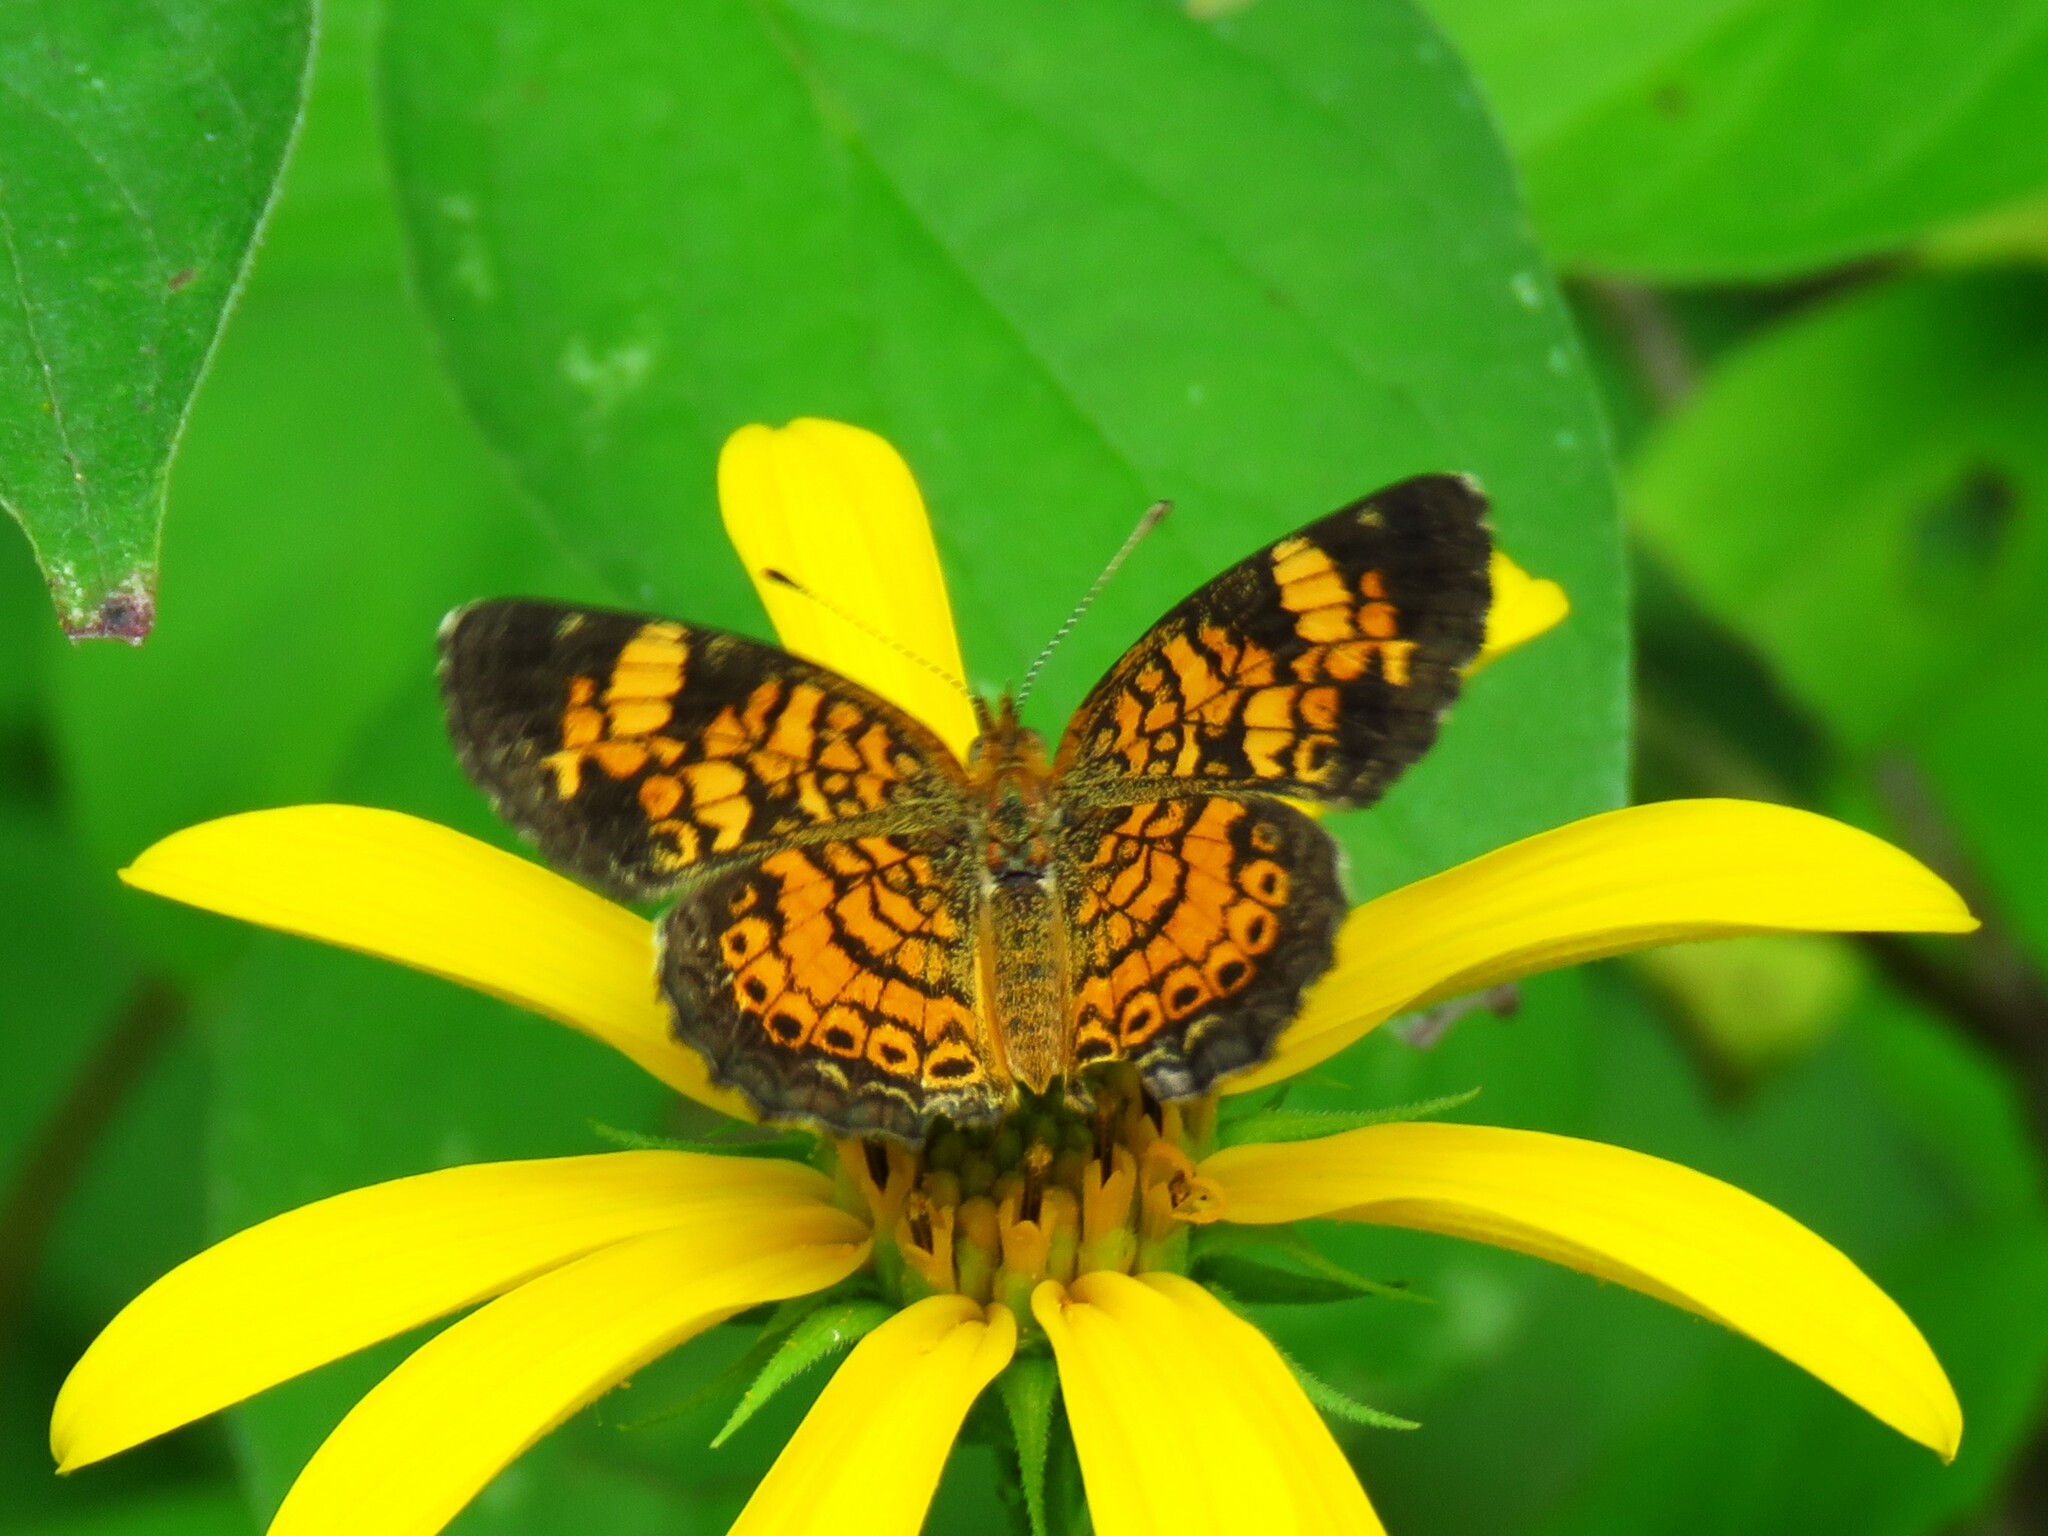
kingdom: Animalia
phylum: Arthropoda
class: Insecta
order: Lepidoptera
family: Nymphalidae
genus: Phyciodes
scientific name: Phyciodes tharos
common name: Pearl crescent
